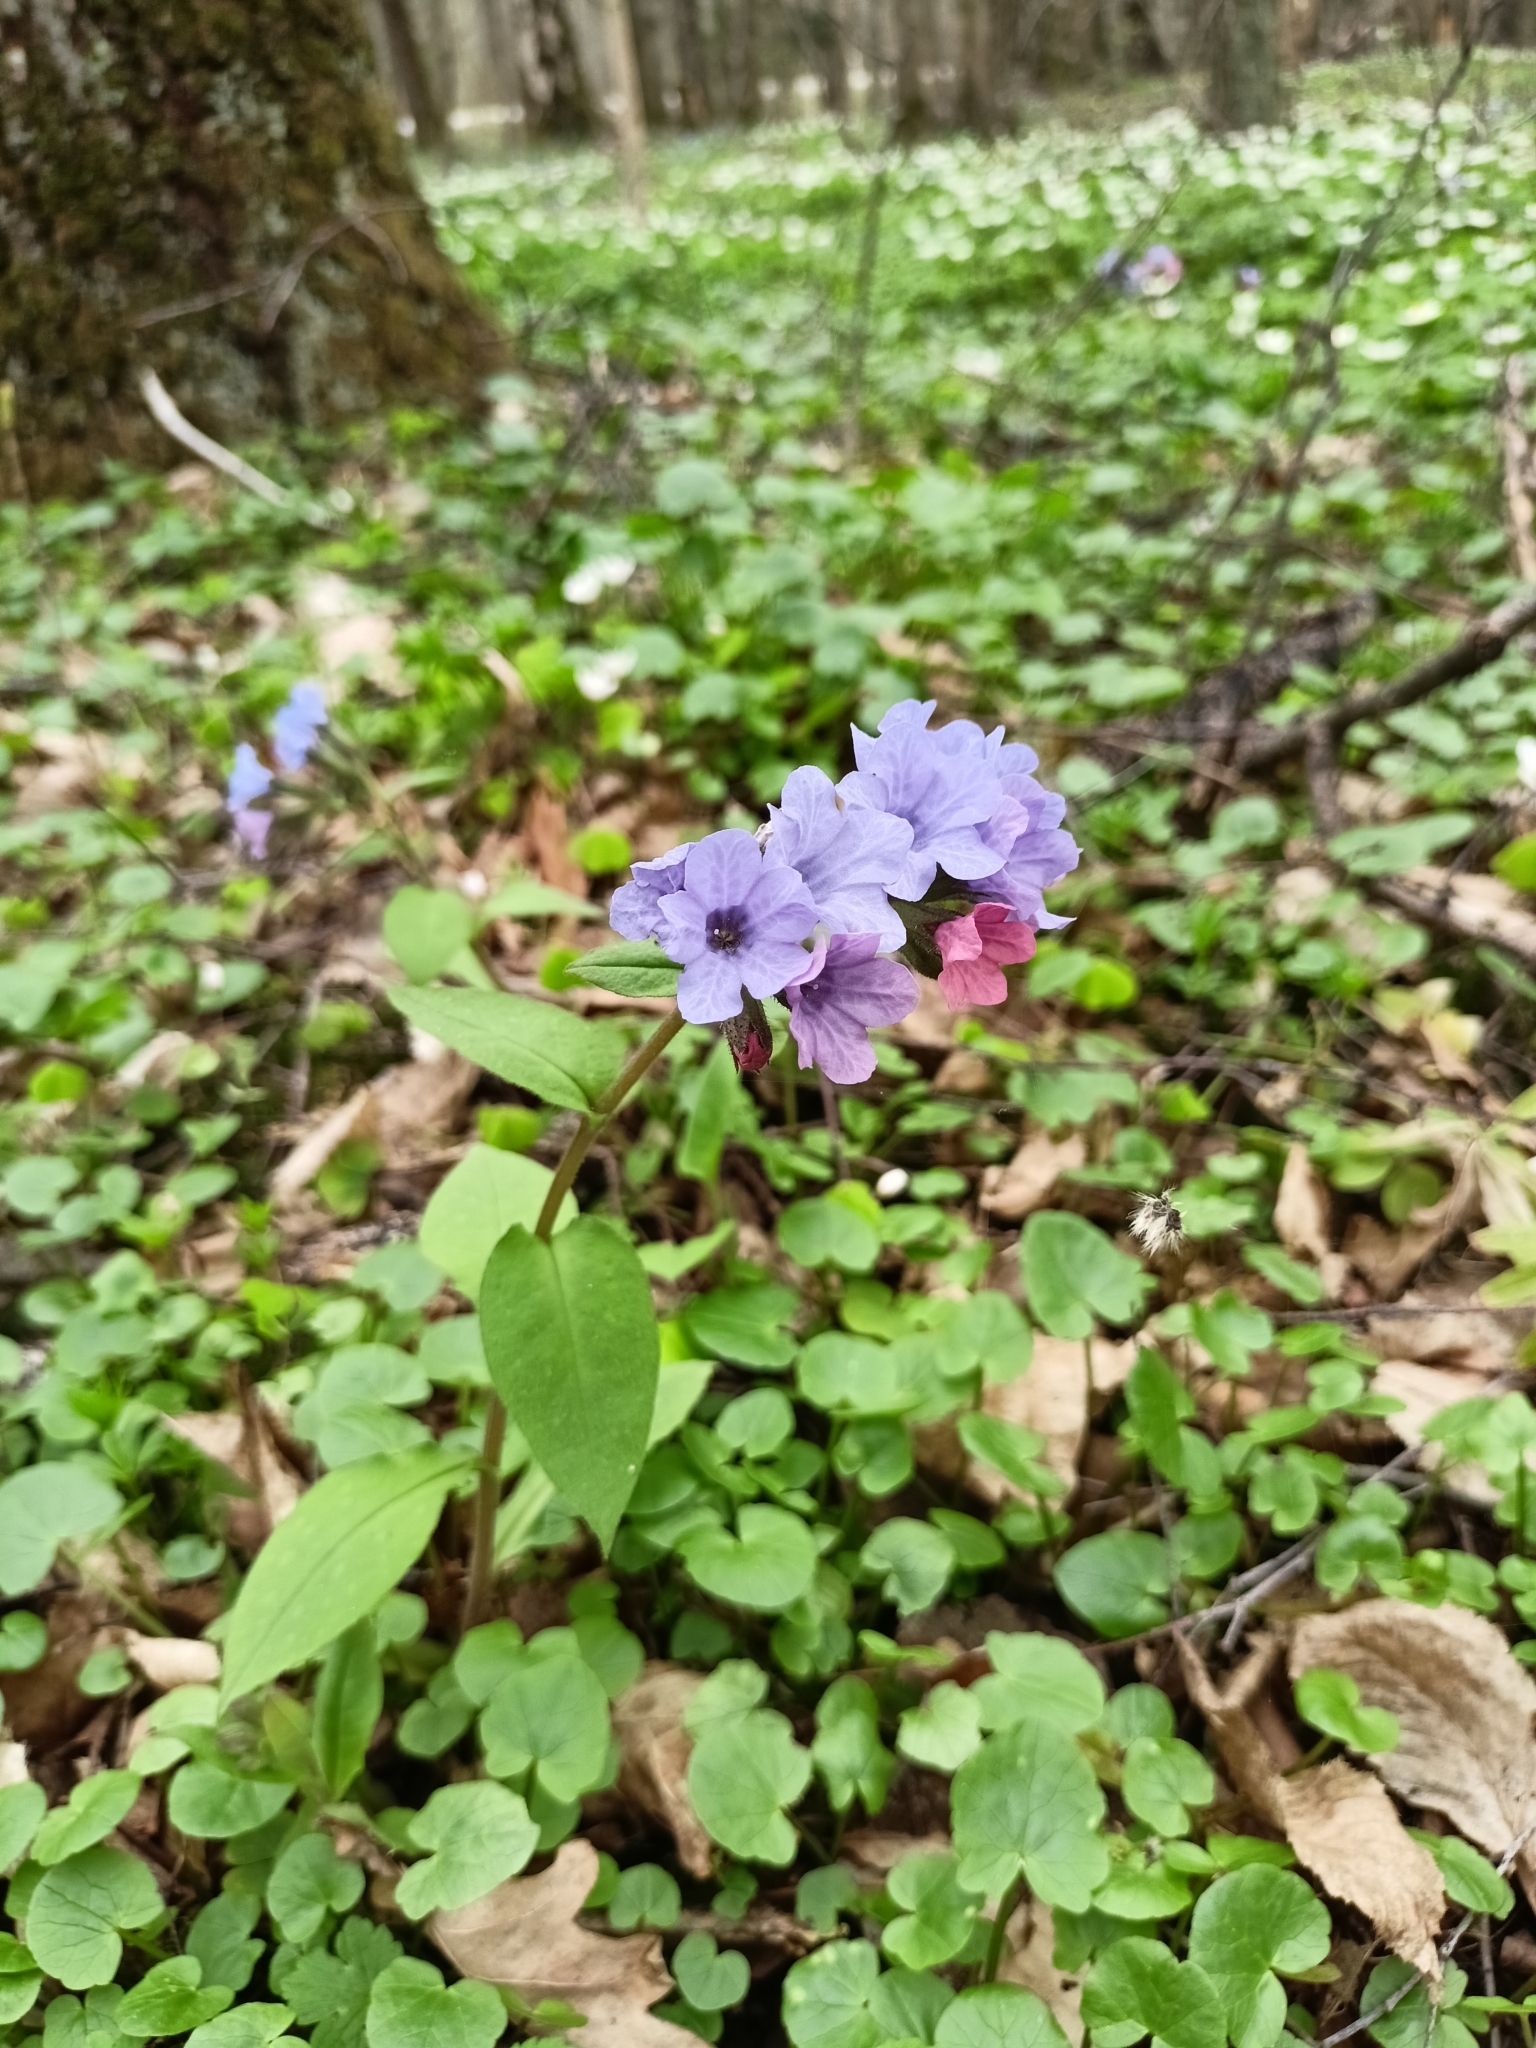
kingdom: Plantae
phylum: Tracheophyta
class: Magnoliopsida
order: Boraginales
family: Boraginaceae
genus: Pulmonaria
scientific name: Pulmonaria obscura
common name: Suffolk lungwort
